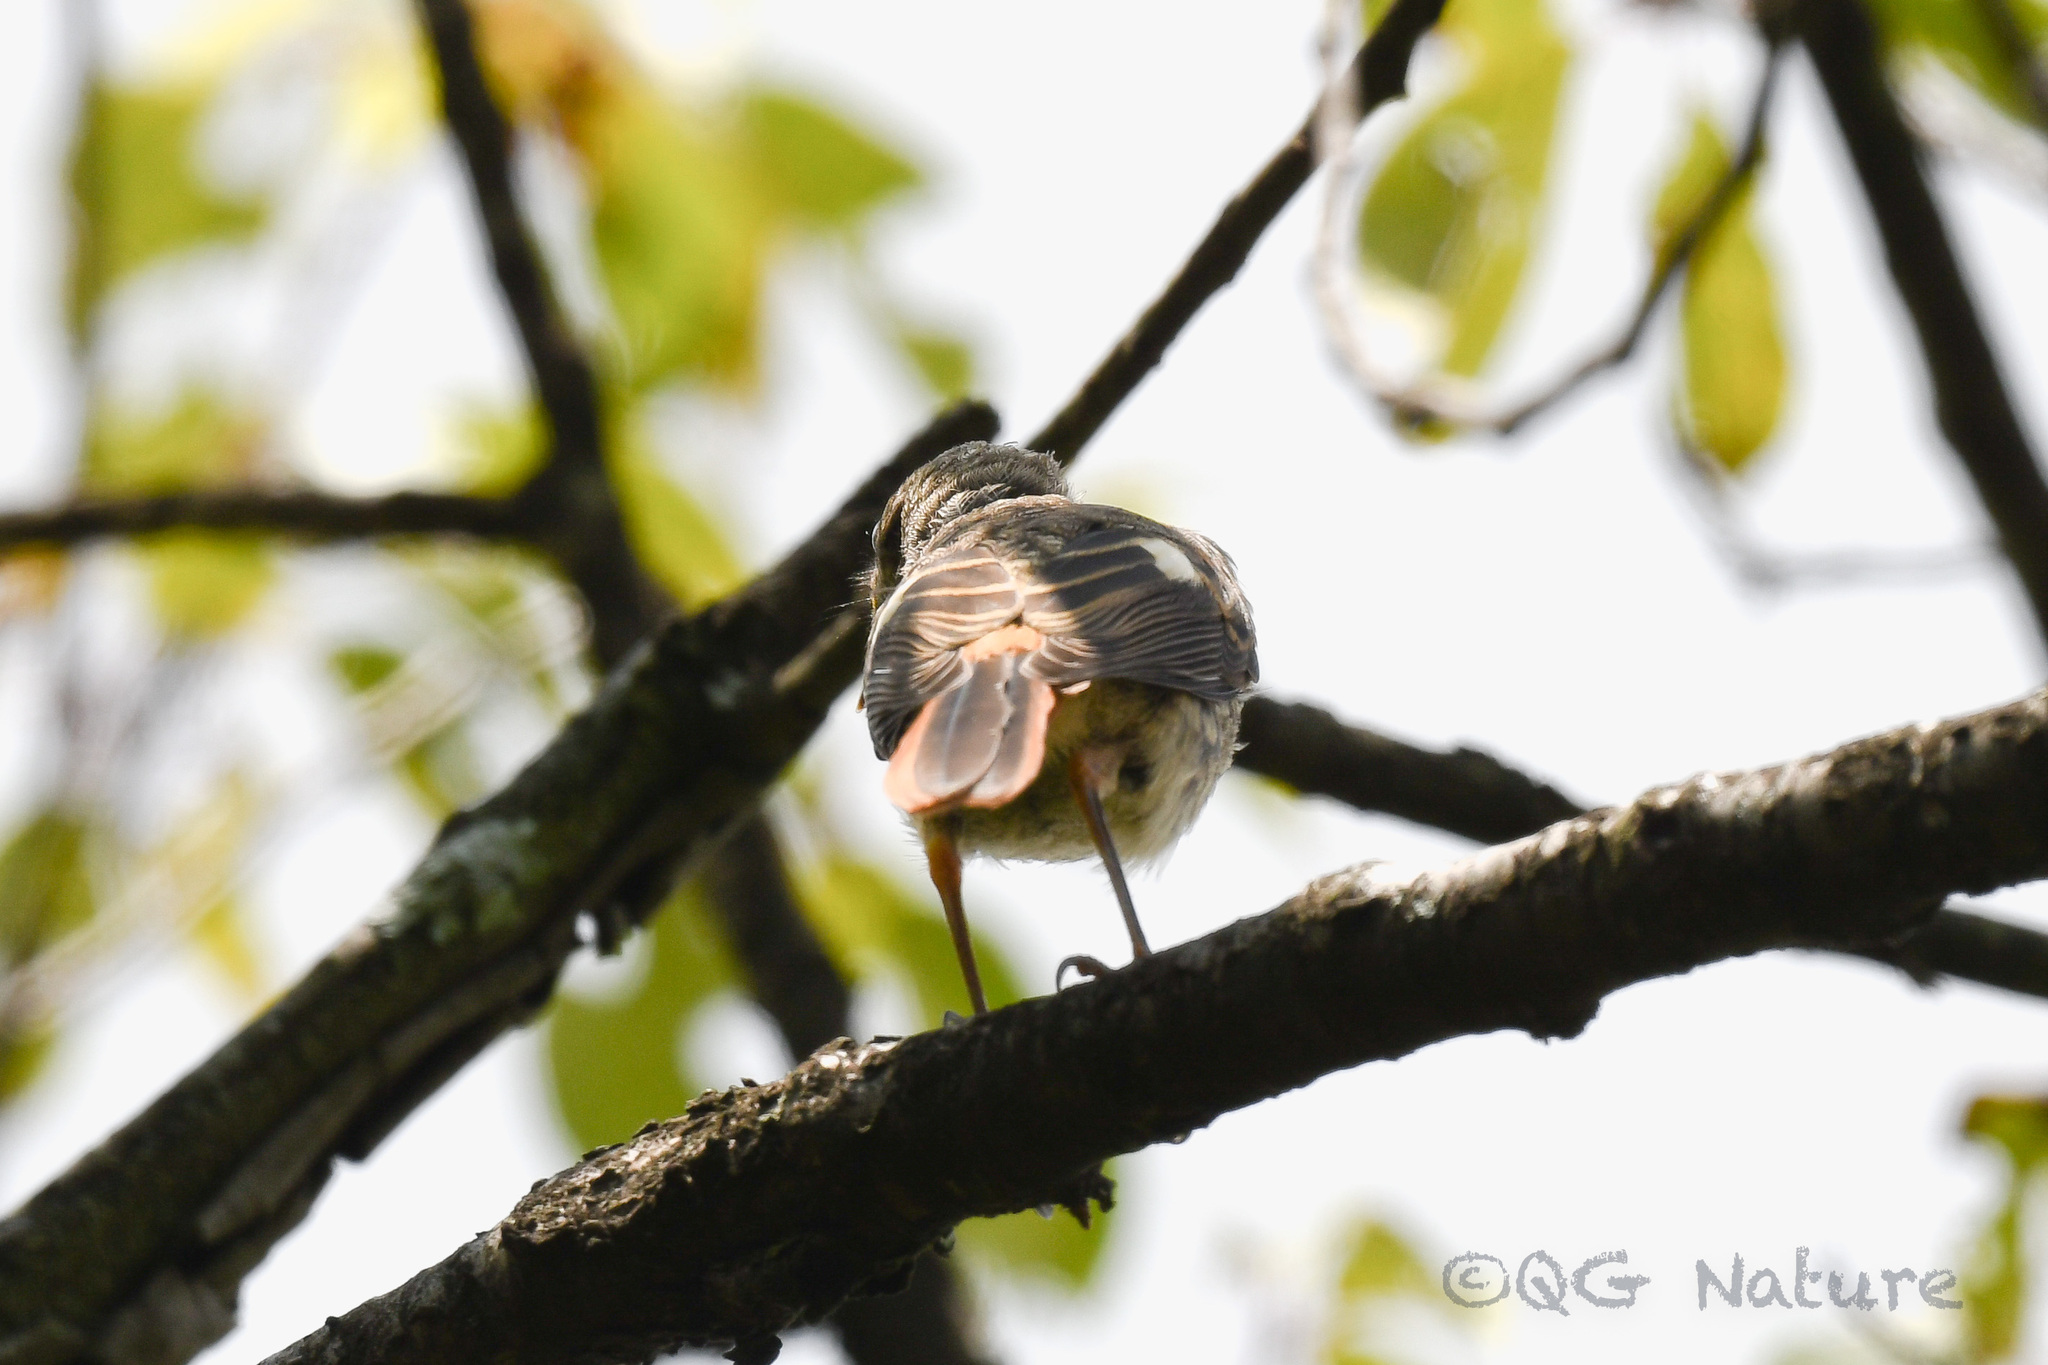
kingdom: Animalia
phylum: Chordata
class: Aves
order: Passeriformes
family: Muscicapidae
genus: Phoenicurus
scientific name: Phoenicurus auroreus
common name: Daurian redstart
